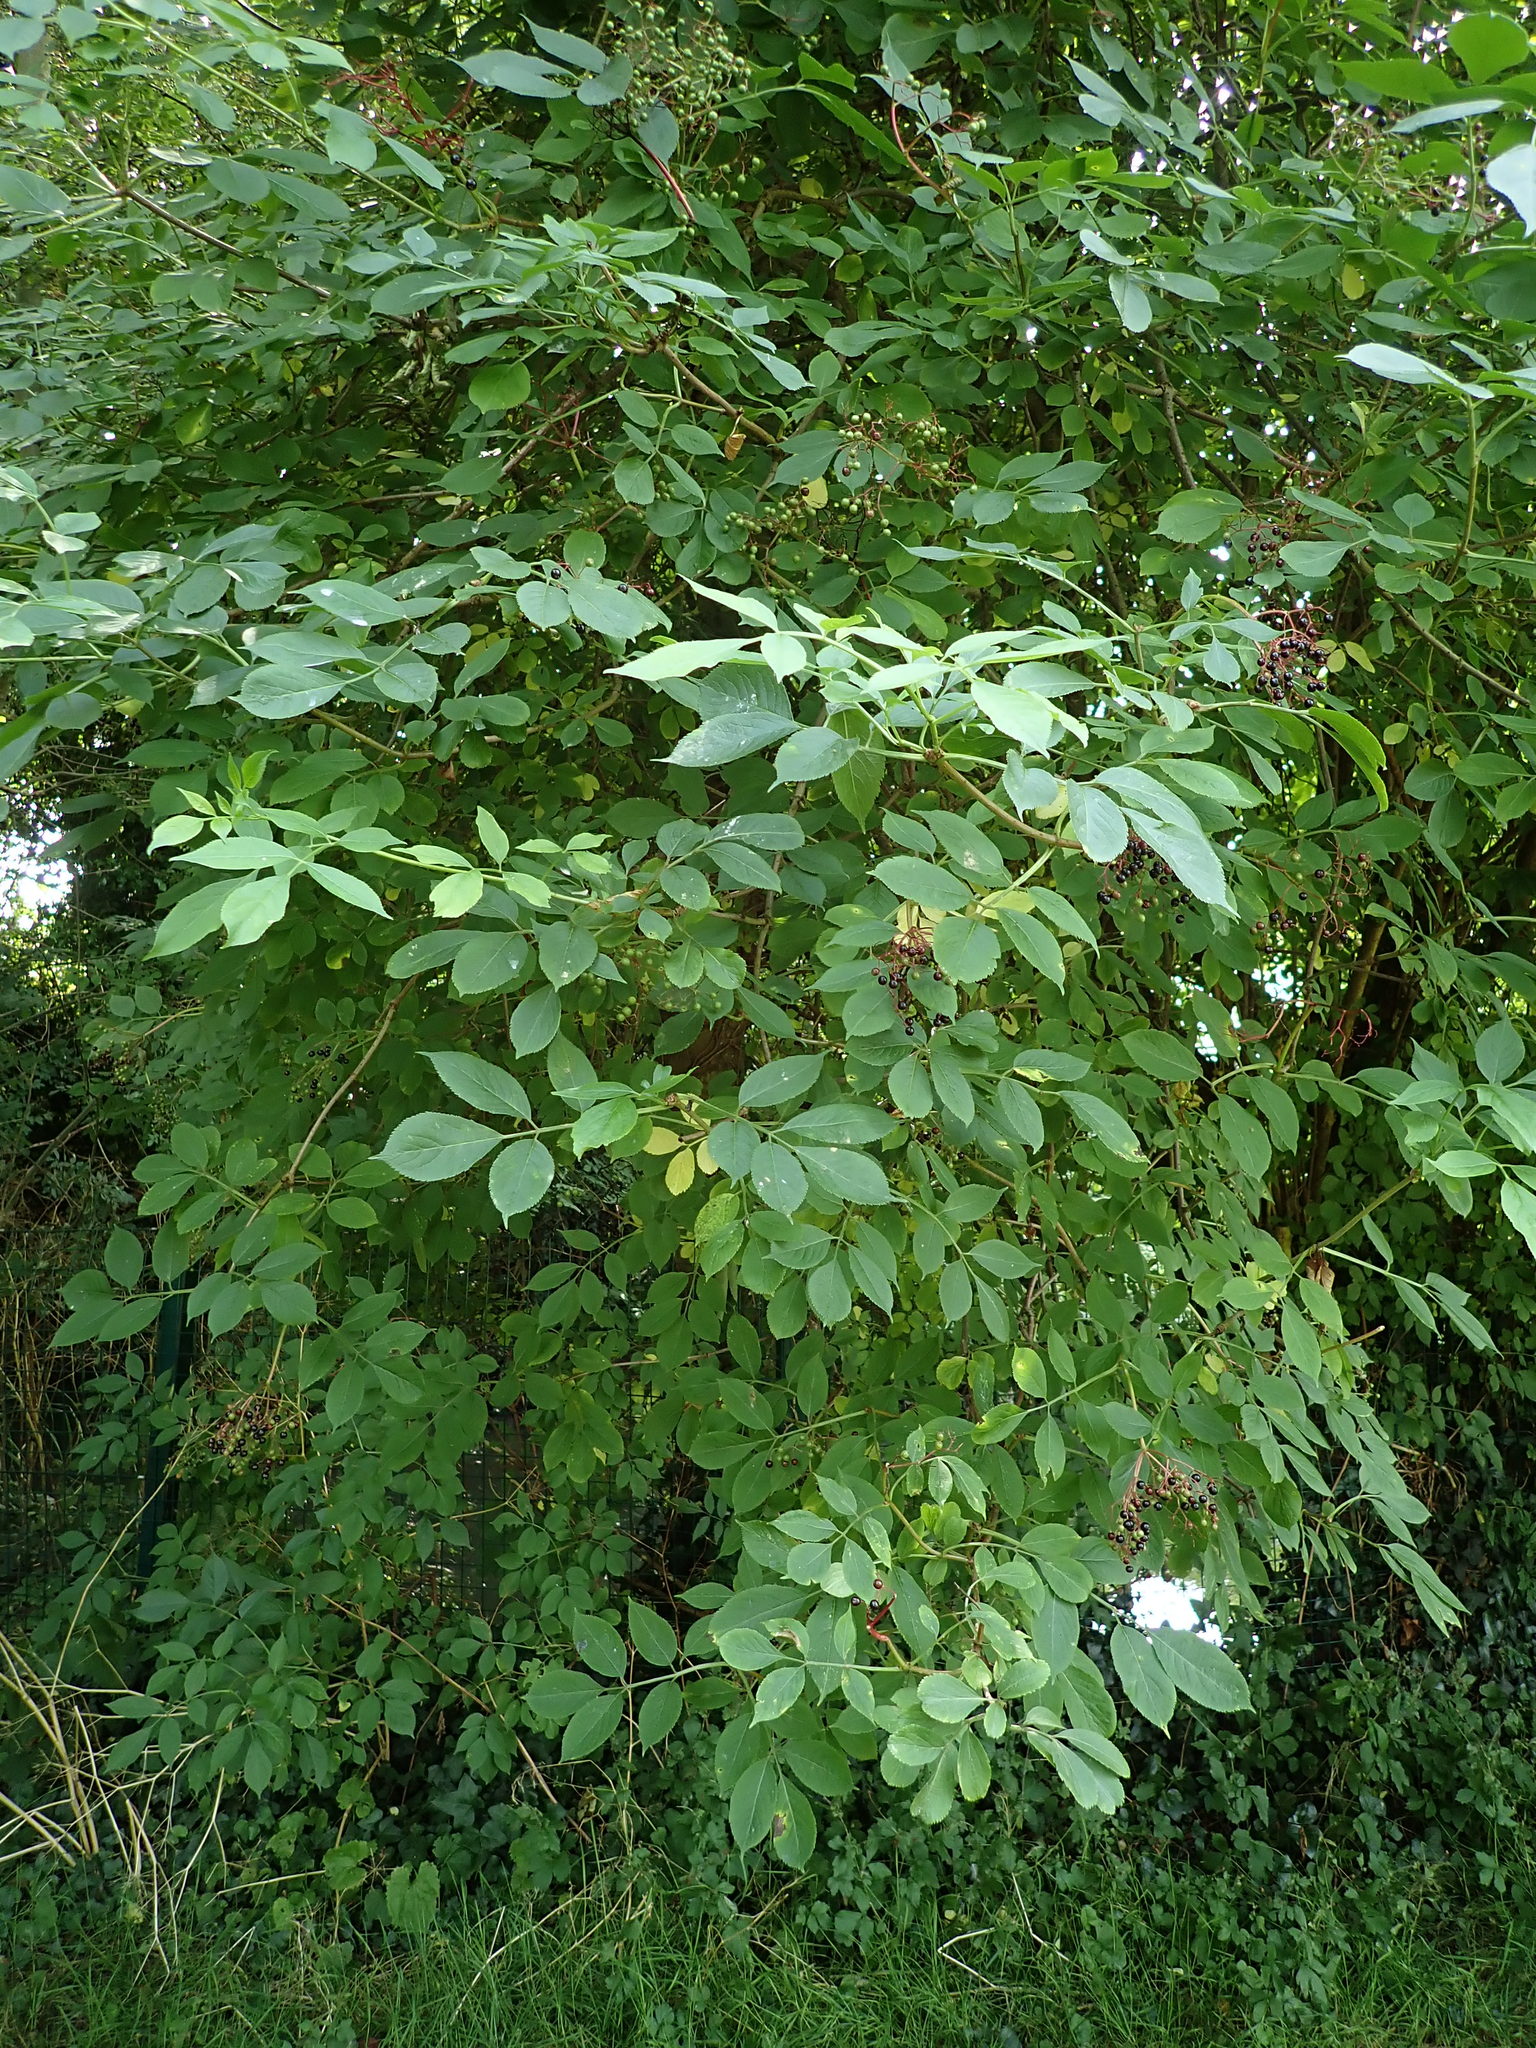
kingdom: Plantae
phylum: Tracheophyta
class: Magnoliopsida
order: Dipsacales
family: Viburnaceae
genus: Sambucus
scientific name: Sambucus nigra
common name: Elder
